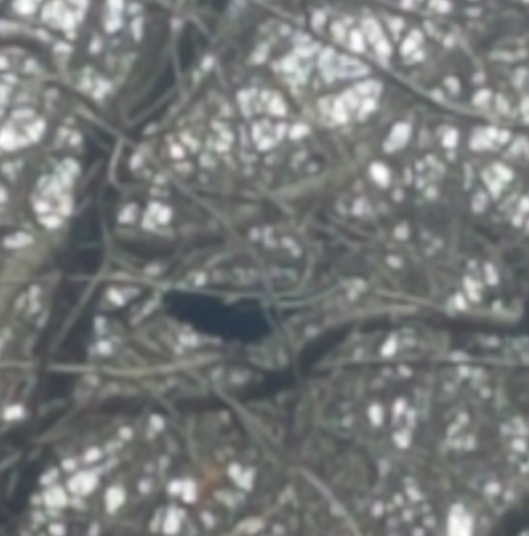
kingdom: Animalia
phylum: Chordata
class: Aves
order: Passeriformes
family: Icteridae
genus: Agelaius
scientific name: Agelaius phoeniceus
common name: Red-winged blackbird
